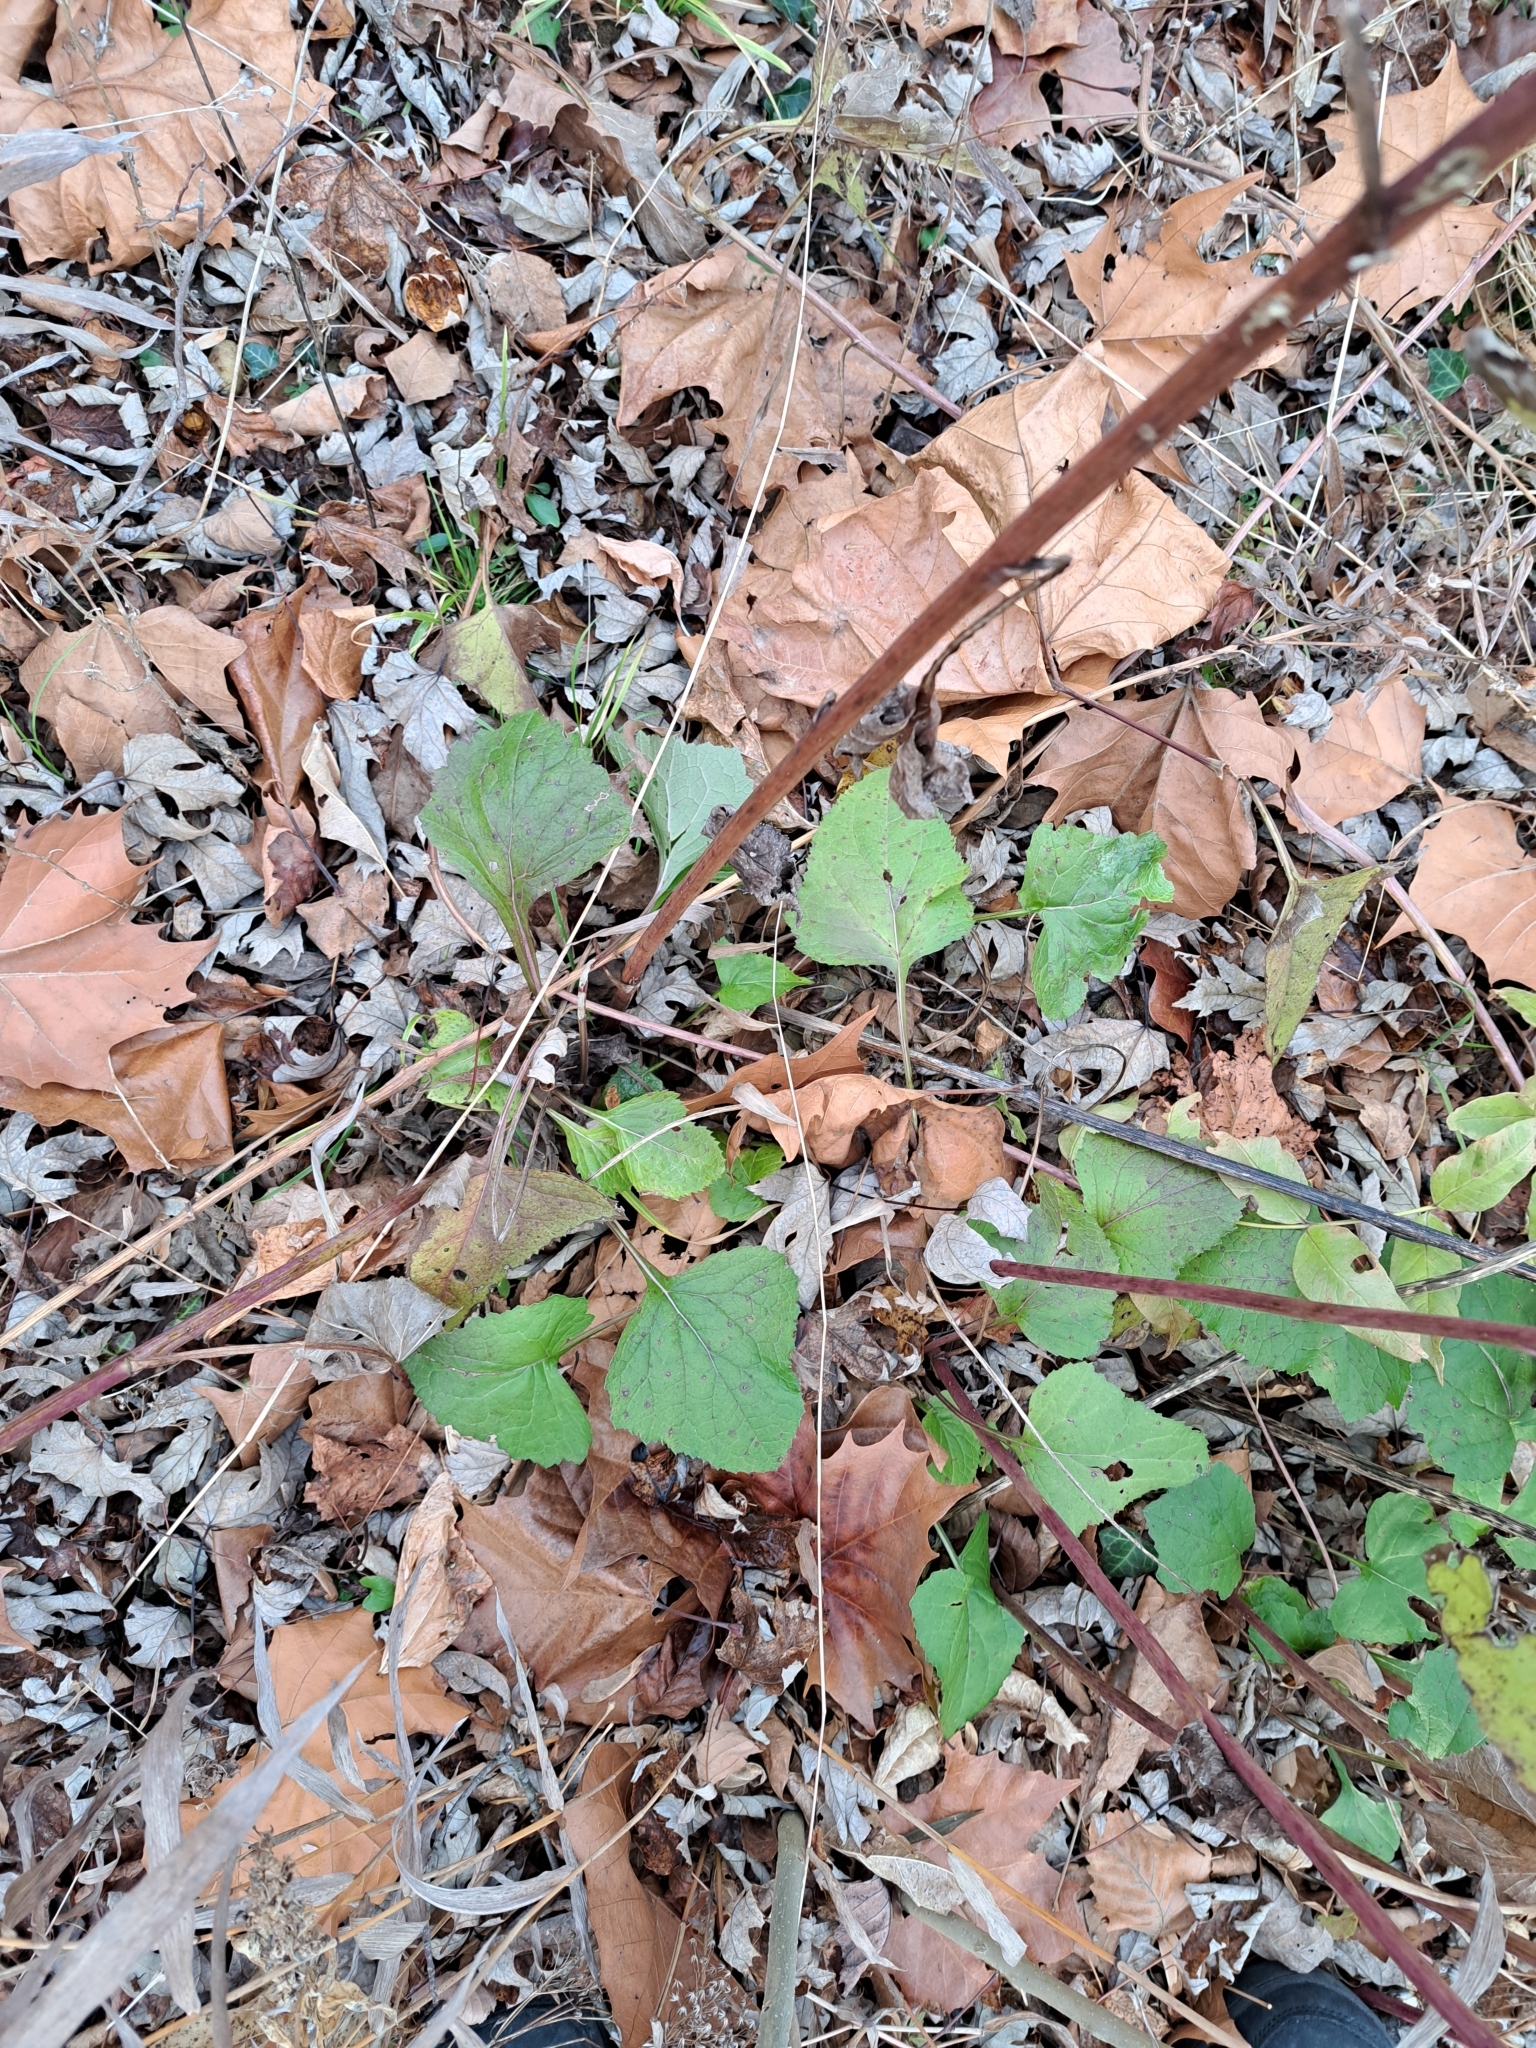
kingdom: Plantae
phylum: Tracheophyta
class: Magnoliopsida
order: Asterales
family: Asteraceae
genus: Hasteola
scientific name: Hasteola suaveolens
